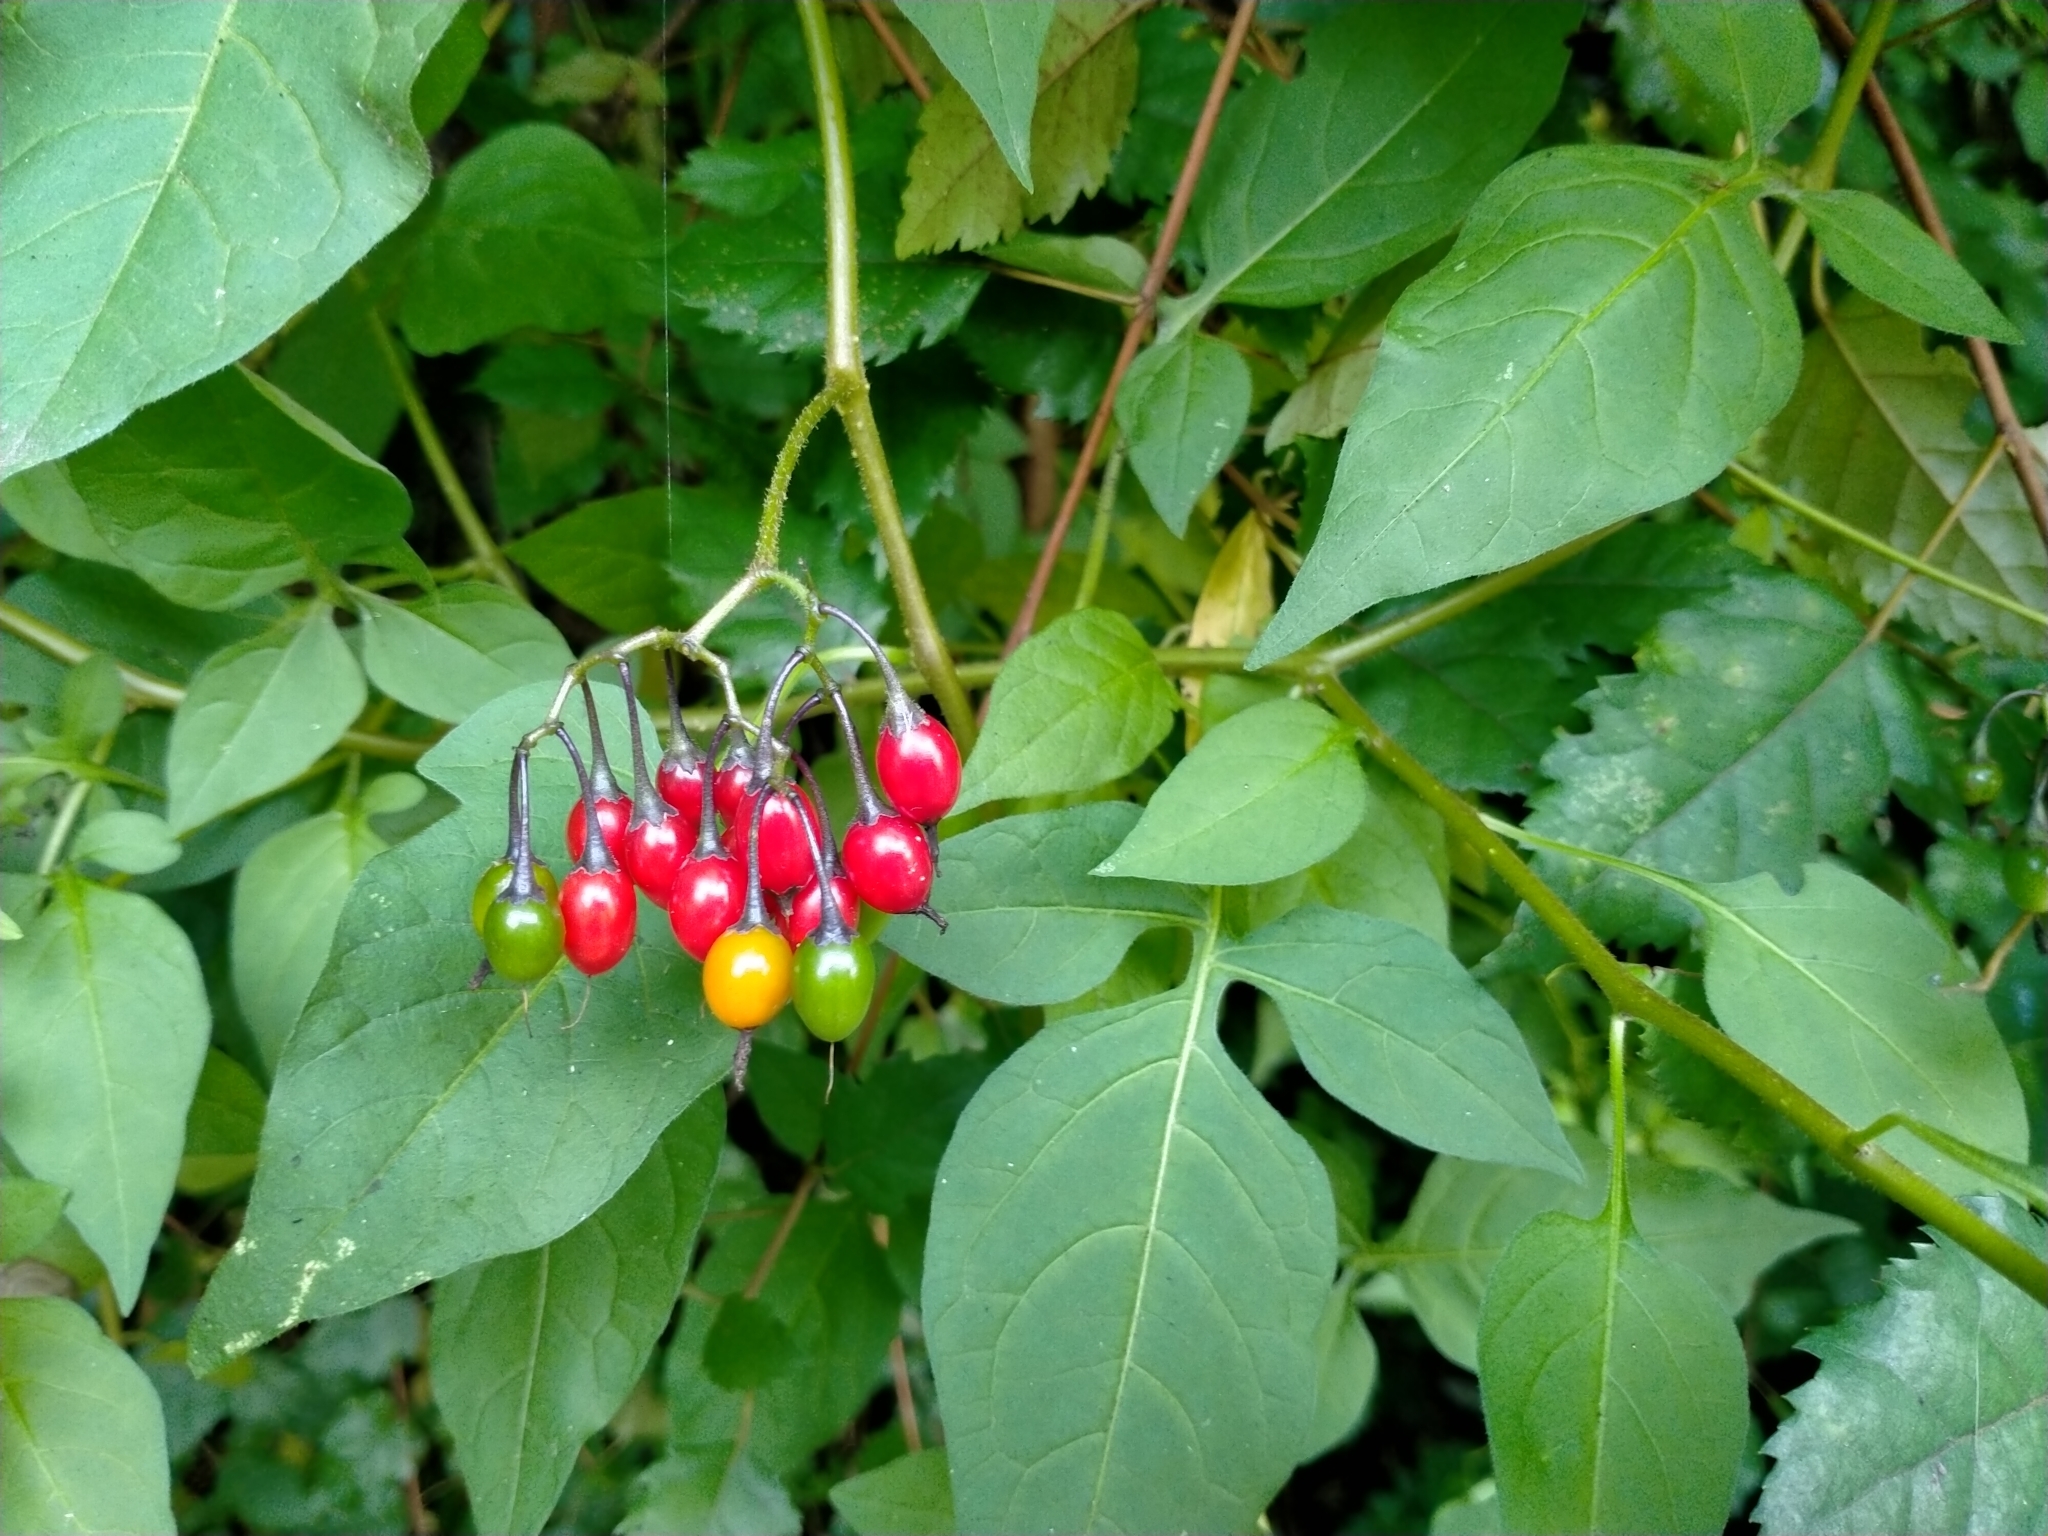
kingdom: Plantae
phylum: Tracheophyta
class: Magnoliopsida
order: Solanales
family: Solanaceae
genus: Solanum
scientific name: Solanum dulcamara
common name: Climbing nightshade
